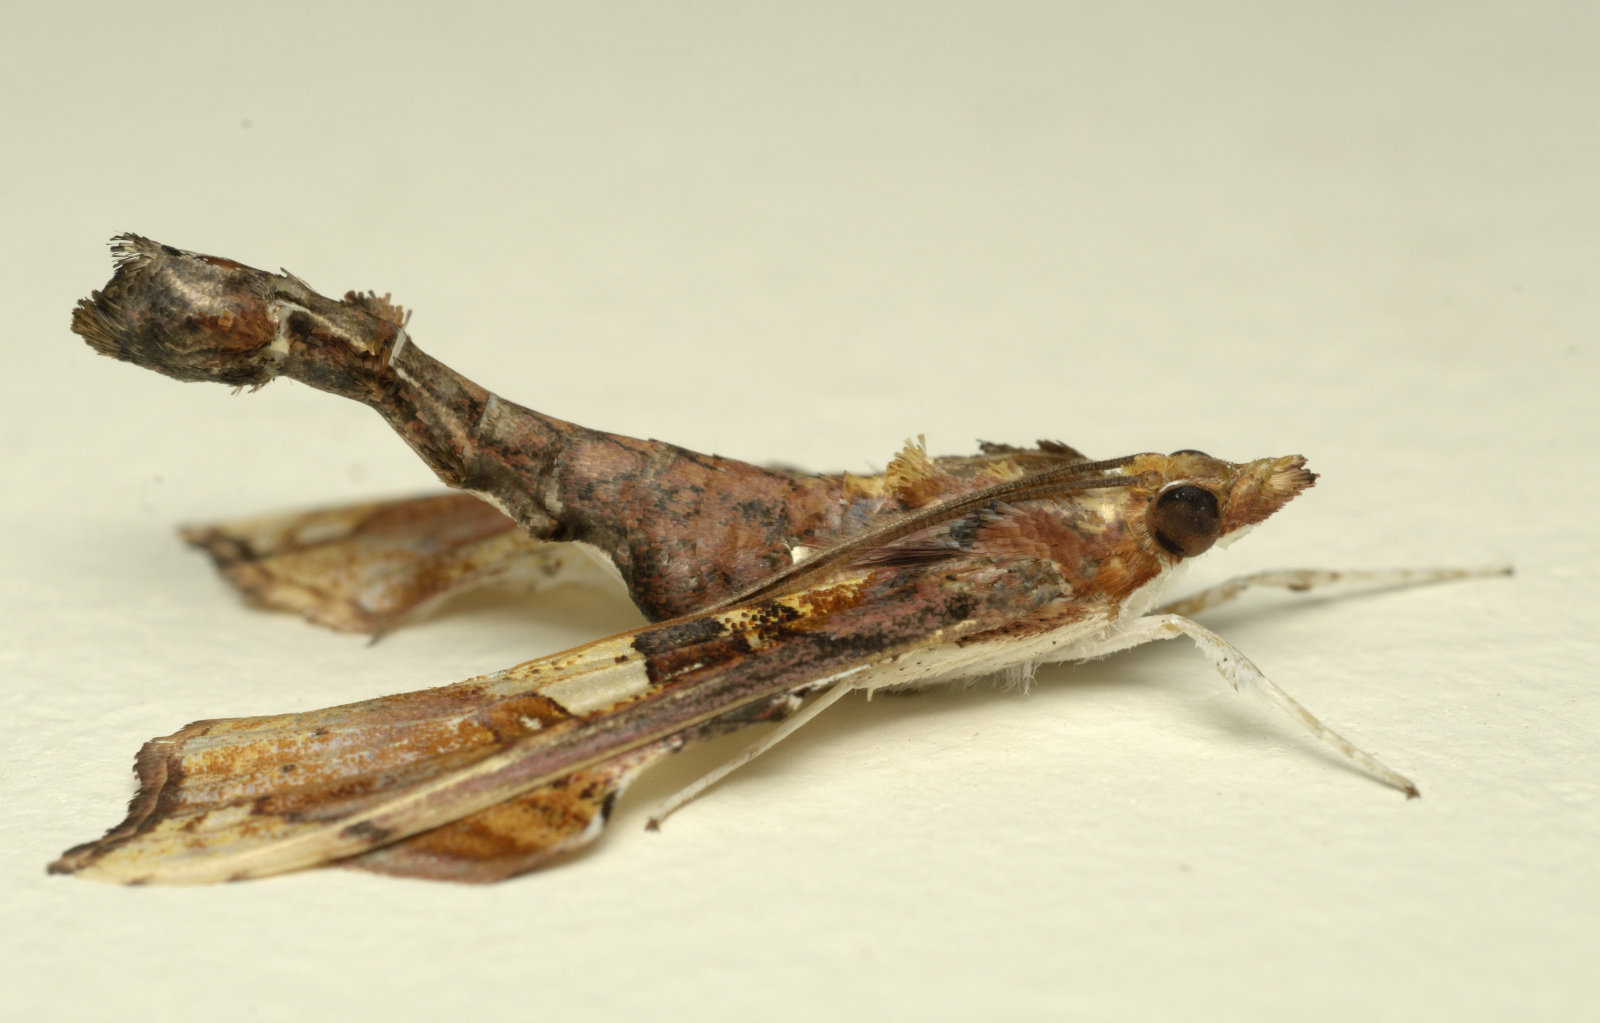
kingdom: Animalia
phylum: Arthropoda
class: Insecta
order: Lepidoptera
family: Crambidae
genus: Terastia
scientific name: Terastia egialealis
